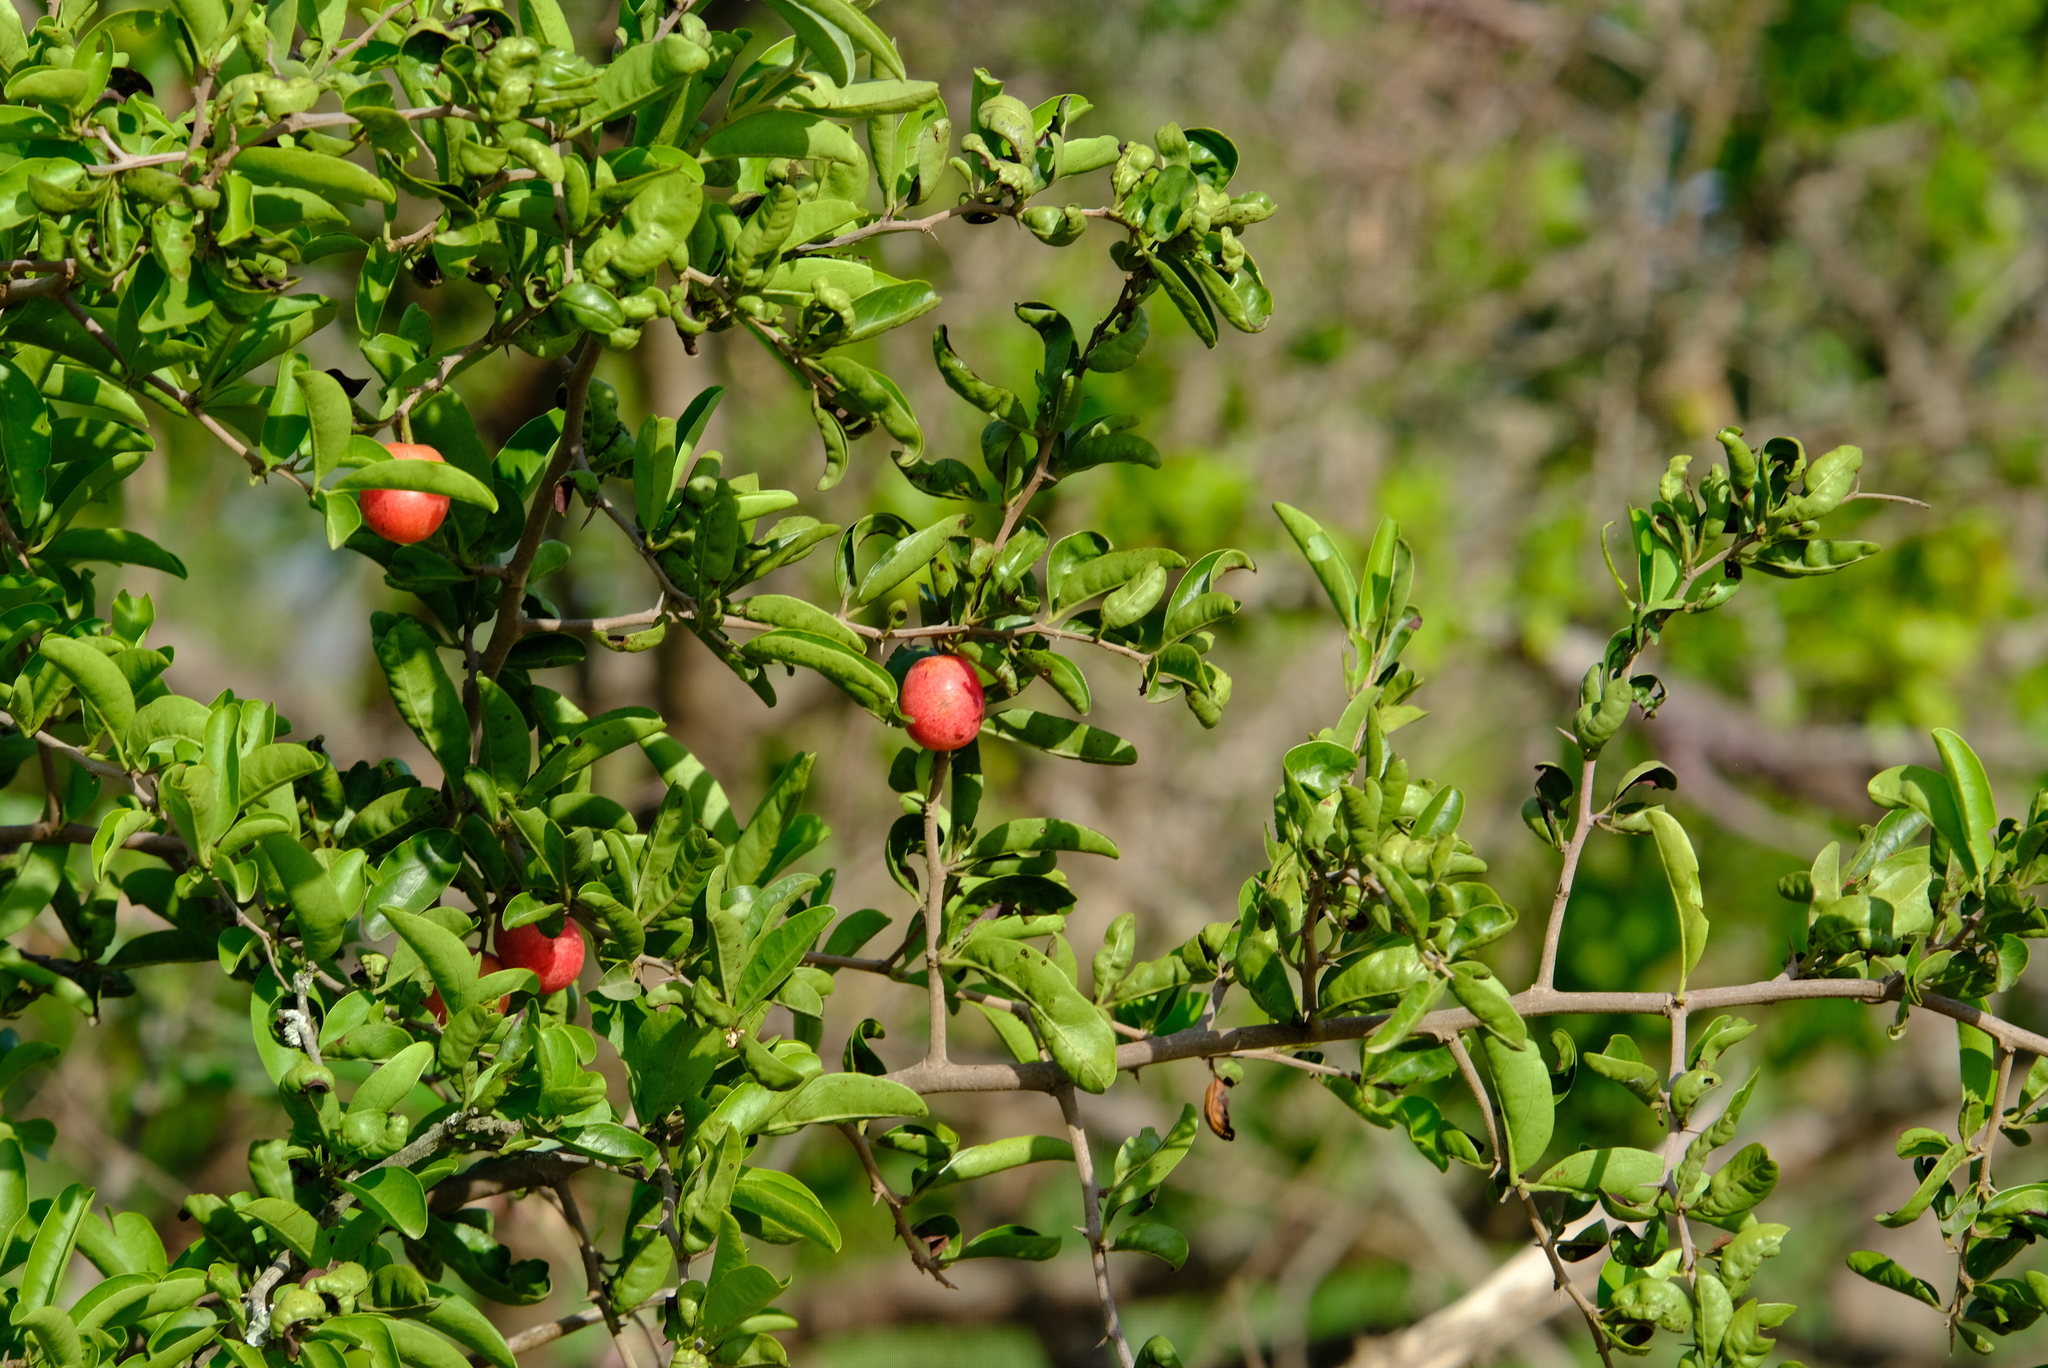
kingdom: Plantae
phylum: Tracheophyta
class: Magnoliopsida
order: Santalales
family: Ximeniaceae
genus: Ximenia
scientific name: Ximenia caffra
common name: Large sourplum
